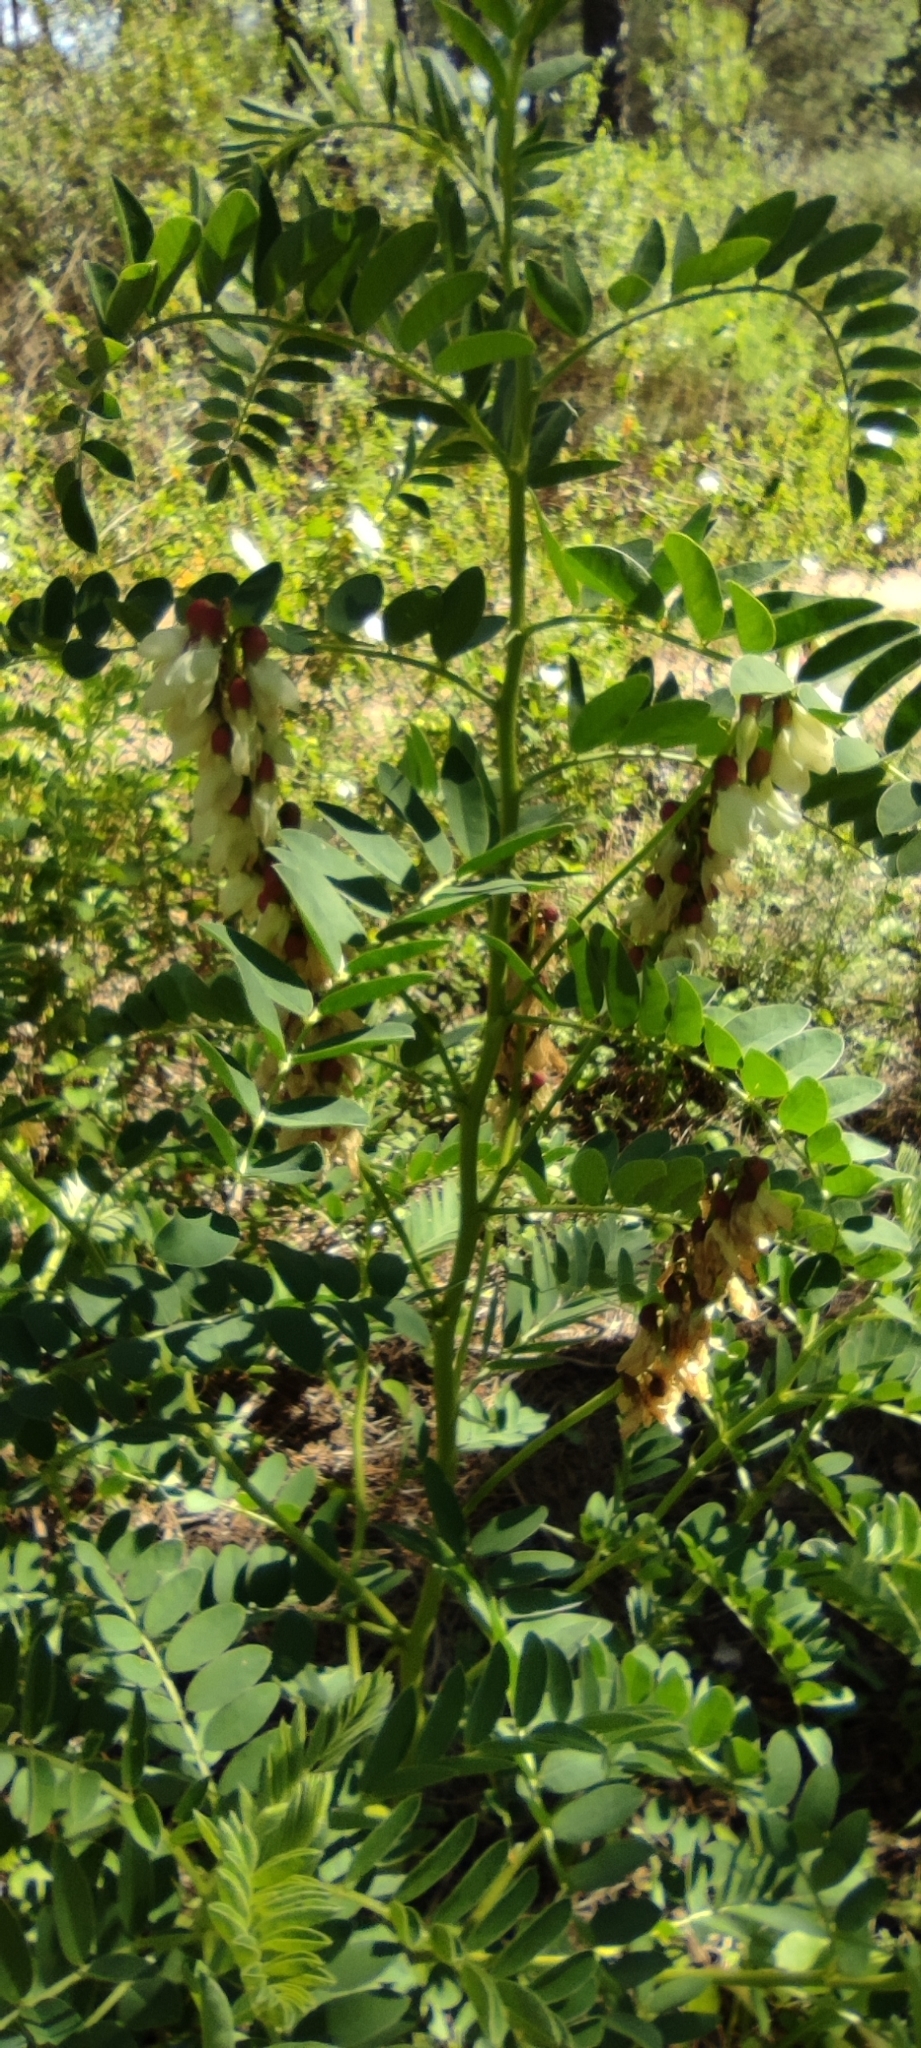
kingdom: Plantae
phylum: Tracheophyta
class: Magnoliopsida
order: Fabales
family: Fabaceae
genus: Erophaca
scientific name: Erophaca baetica
